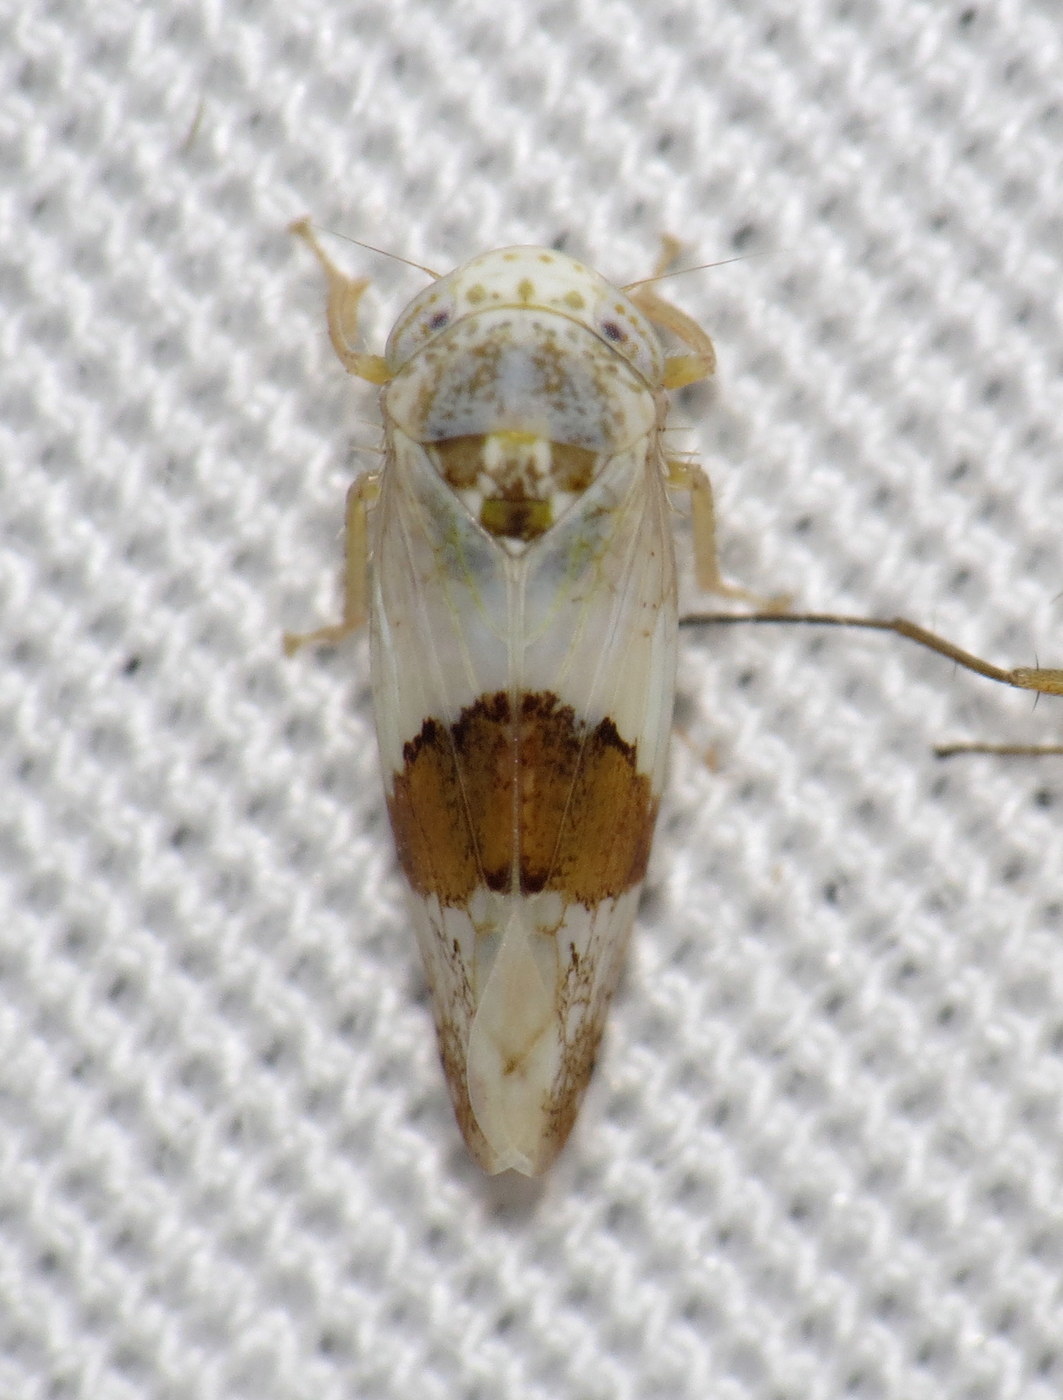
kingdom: Animalia
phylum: Arthropoda
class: Insecta
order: Hemiptera
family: Cicadellidae
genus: Norvellina
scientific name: Norvellina seminuda
